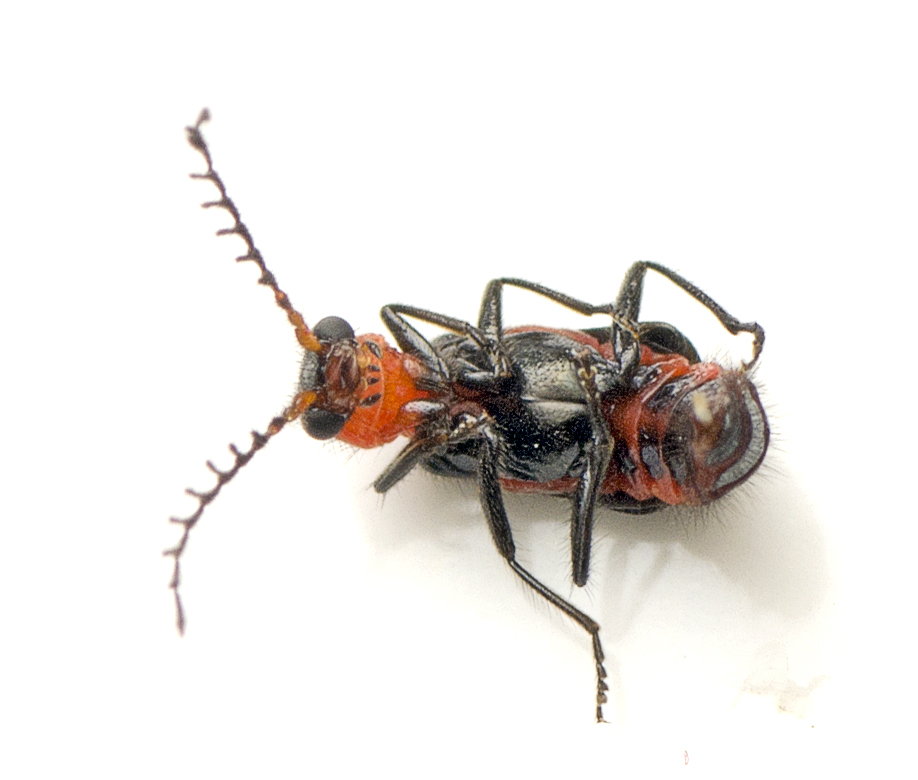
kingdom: Animalia
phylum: Arthropoda
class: Insecta
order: Coleoptera
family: Melyridae
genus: Balanophorus
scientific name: Balanophorus
